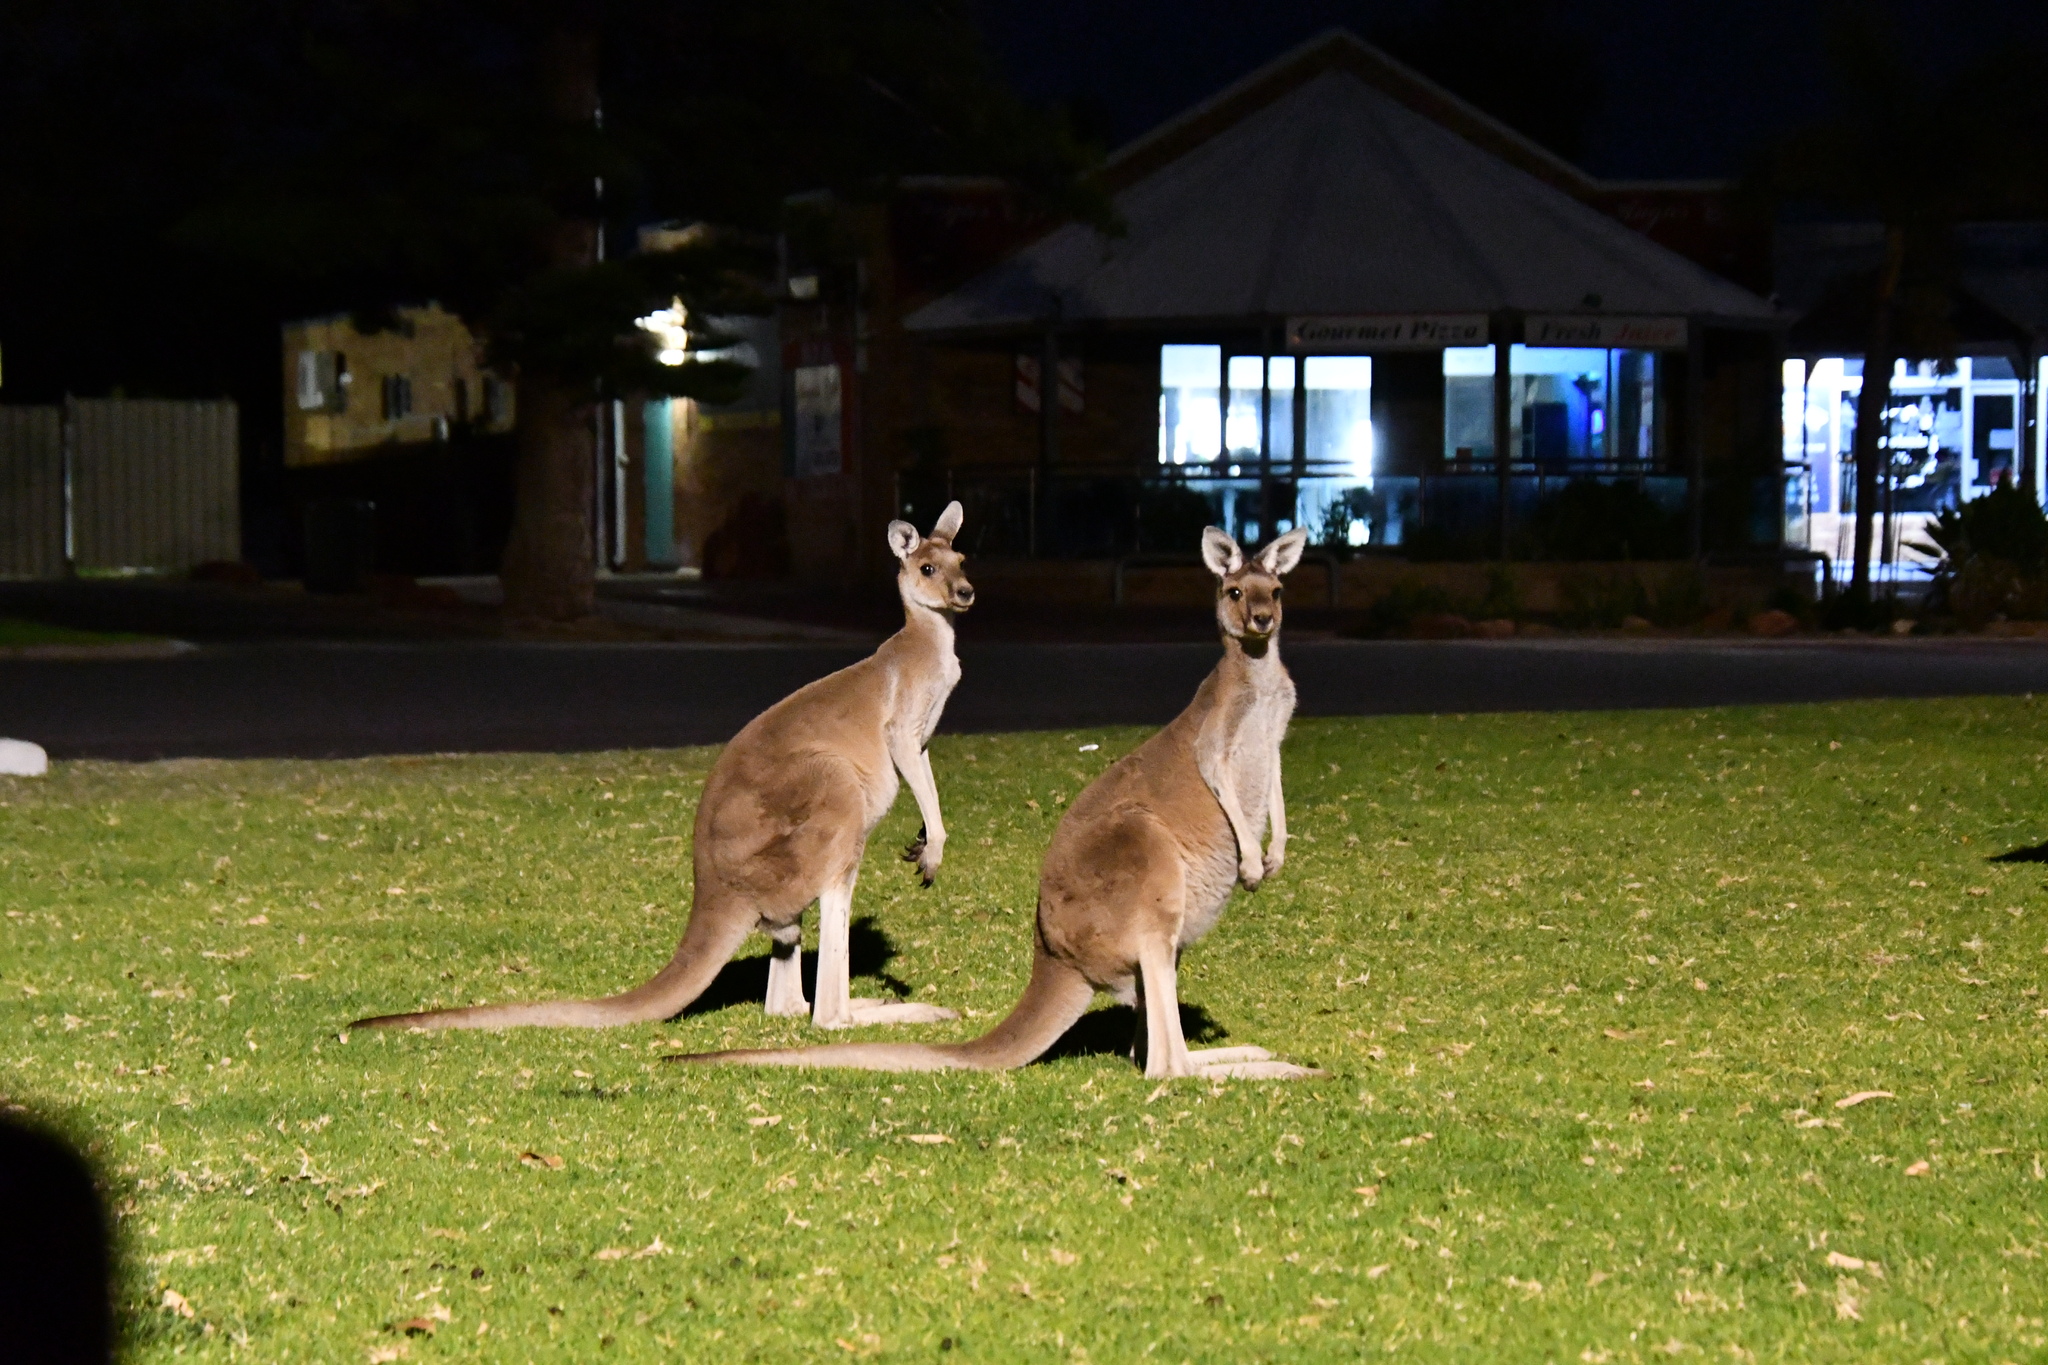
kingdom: Animalia
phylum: Chordata
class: Mammalia
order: Diprotodontia
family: Macropodidae
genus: Macropus
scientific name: Macropus fuliginosus
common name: Western grey kangaroo
